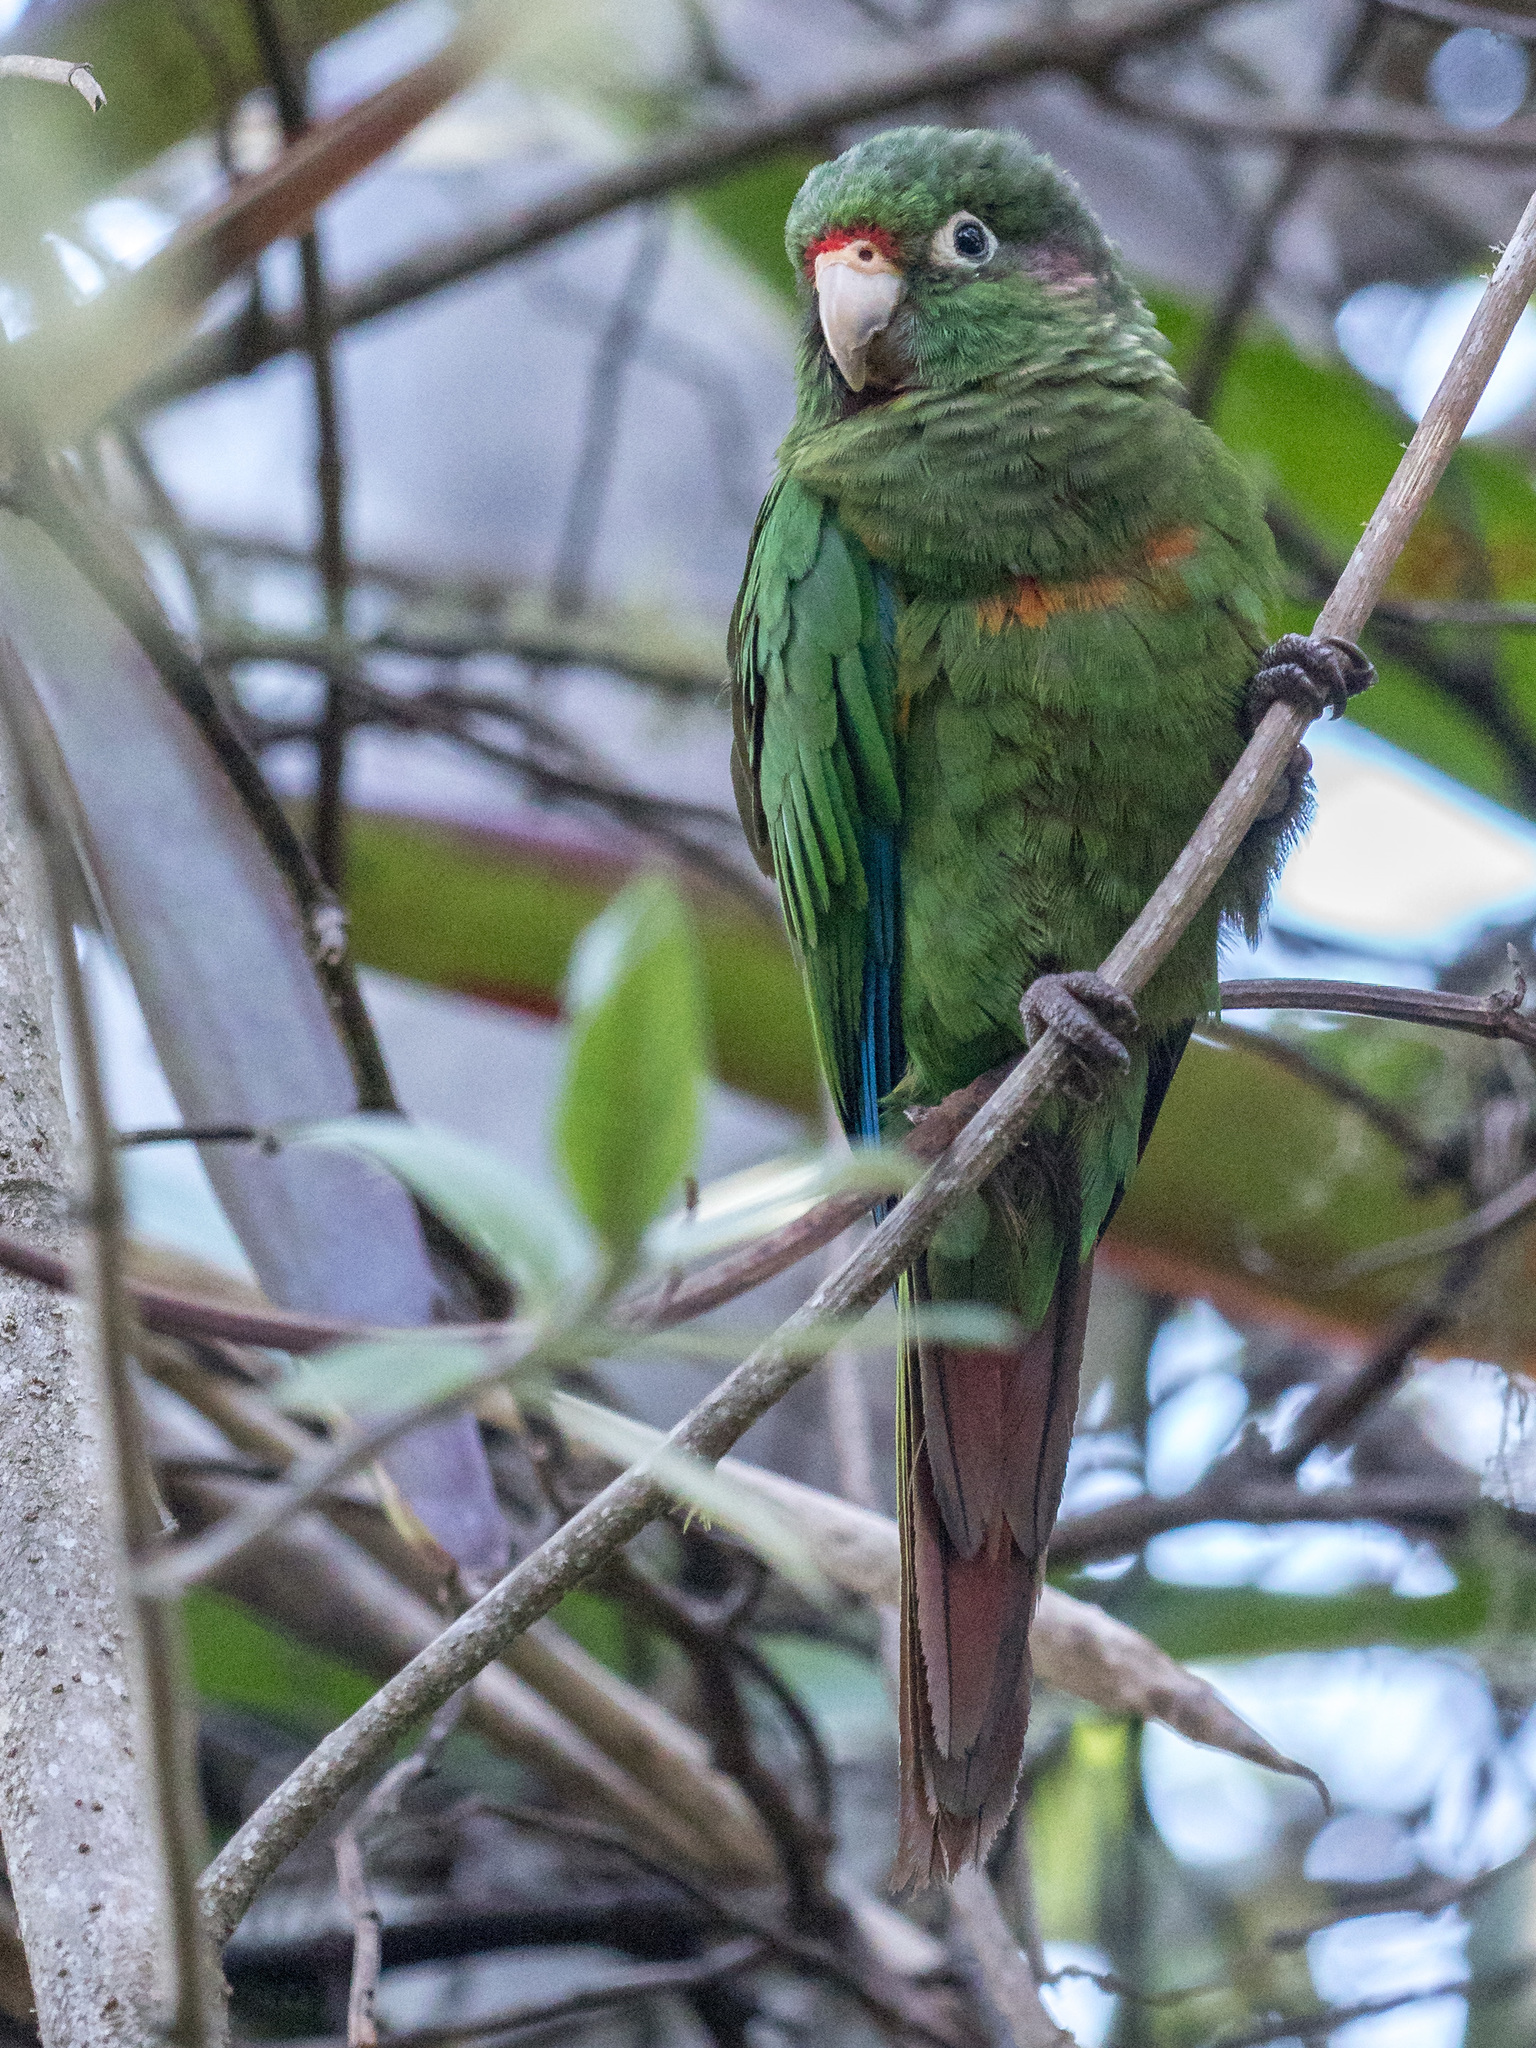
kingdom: Animalia
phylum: Chordata
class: Aves
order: Psittaciformes
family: Psittacidae
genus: Pyrrhura
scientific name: Pyrrhura viridicata
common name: Santa marta parakeet
